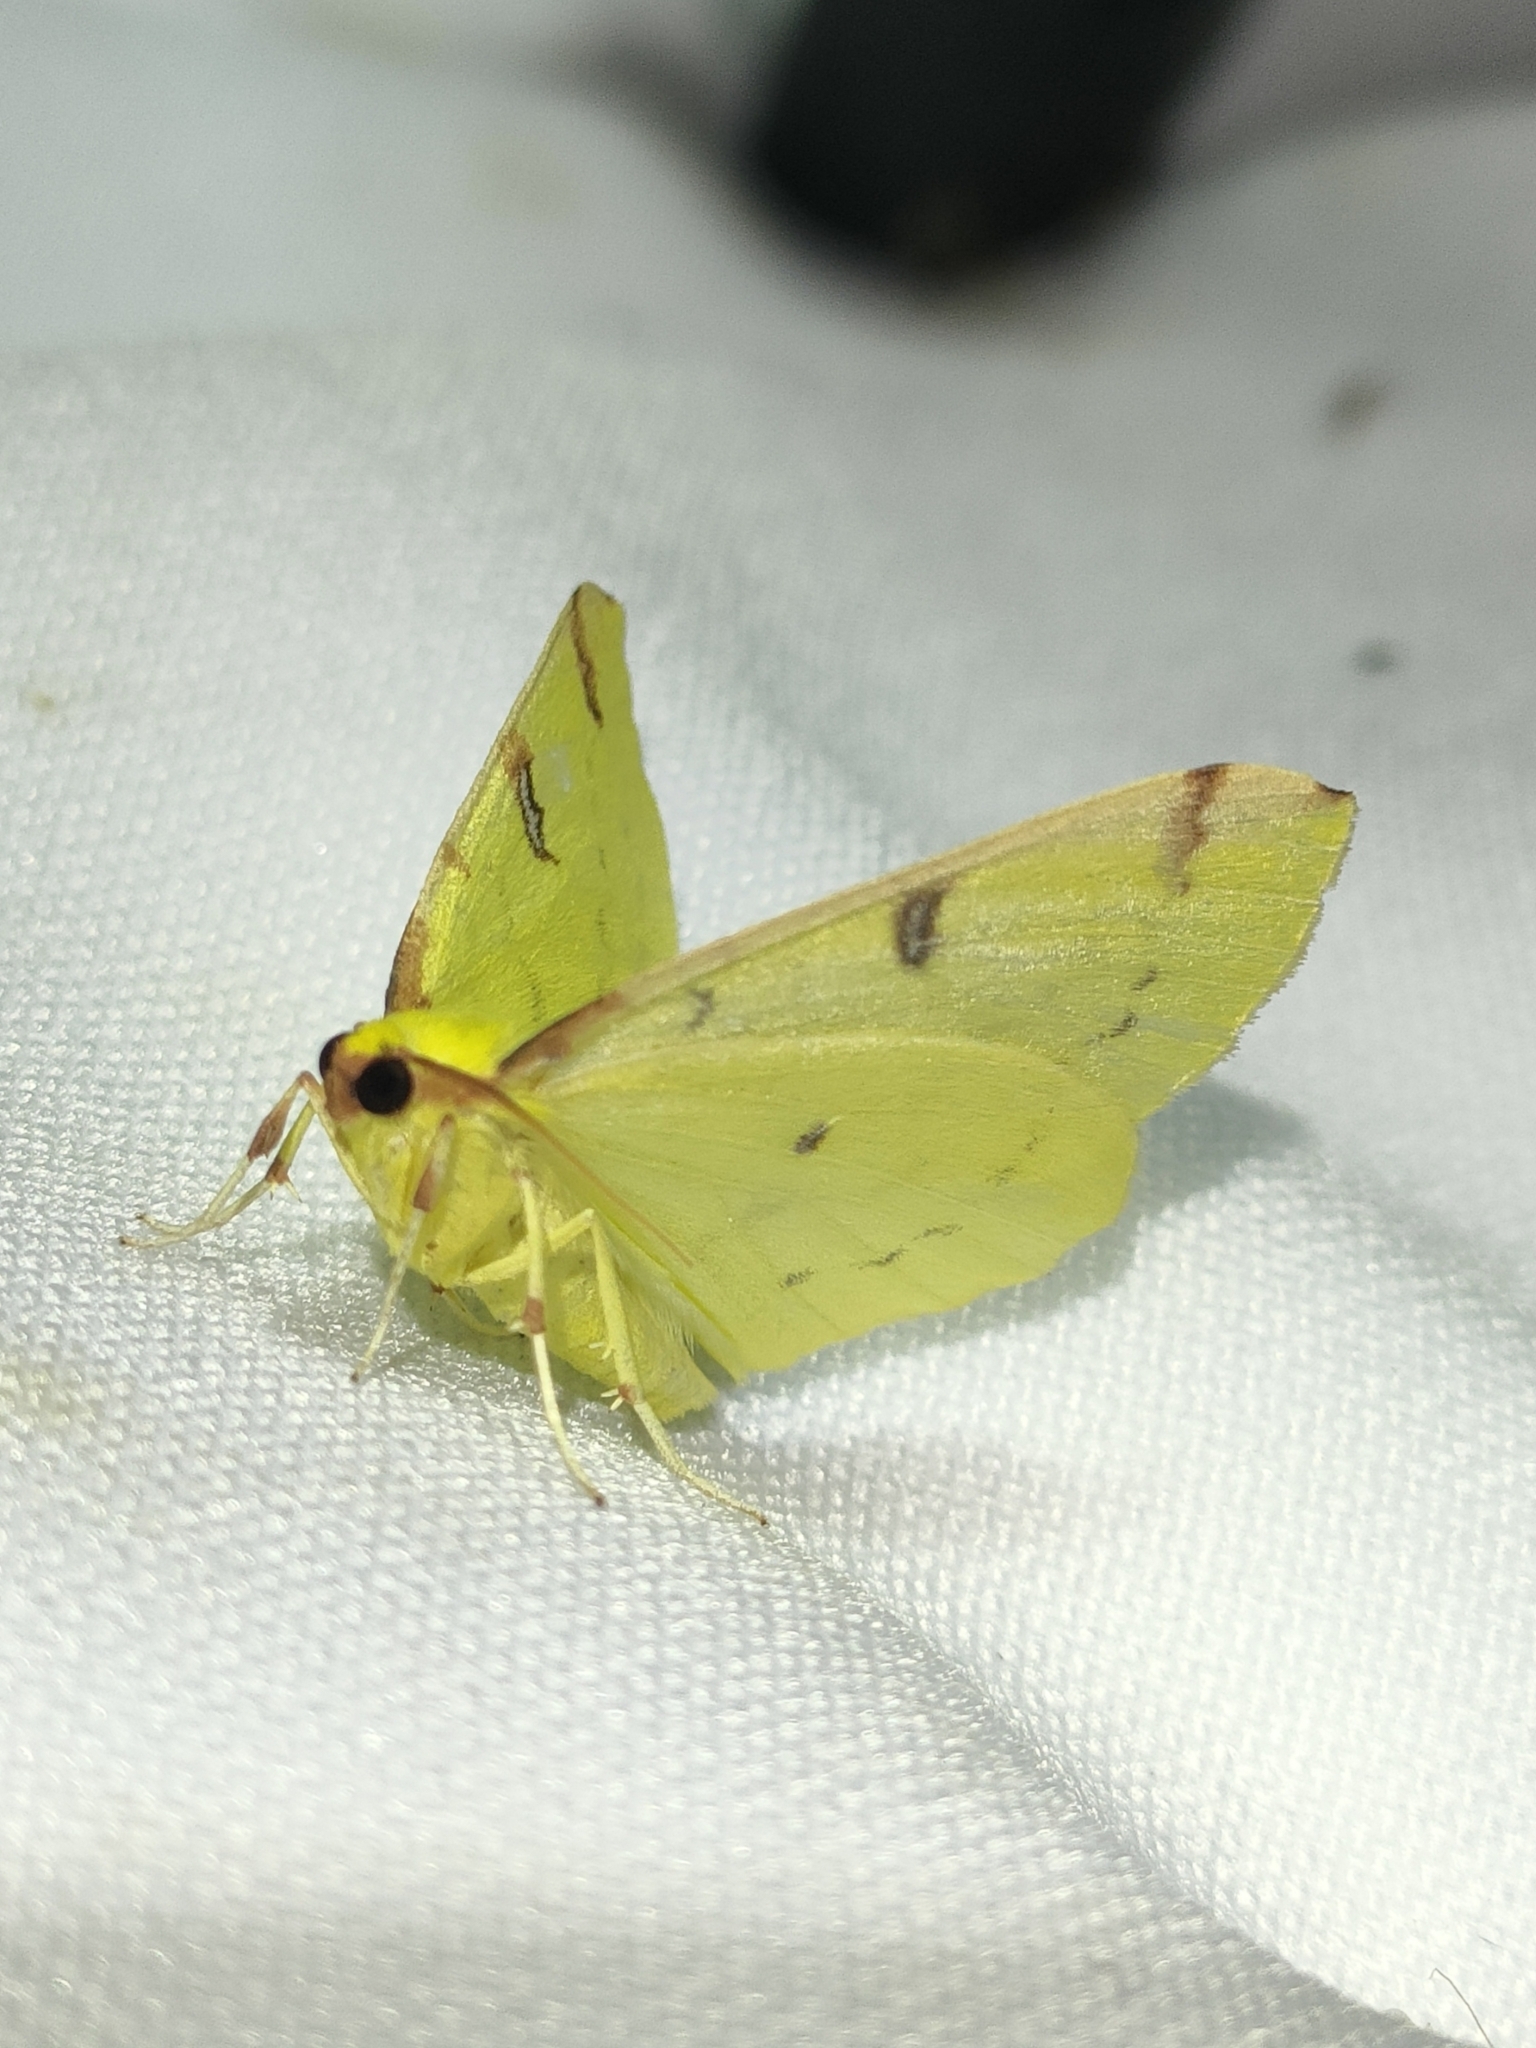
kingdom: Animalia
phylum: Arthropoda
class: Insecta
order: Lepidoptera
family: Geometridae
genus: Opisthograptis
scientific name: Opisthograptis luteolata
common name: Brimstone moth
